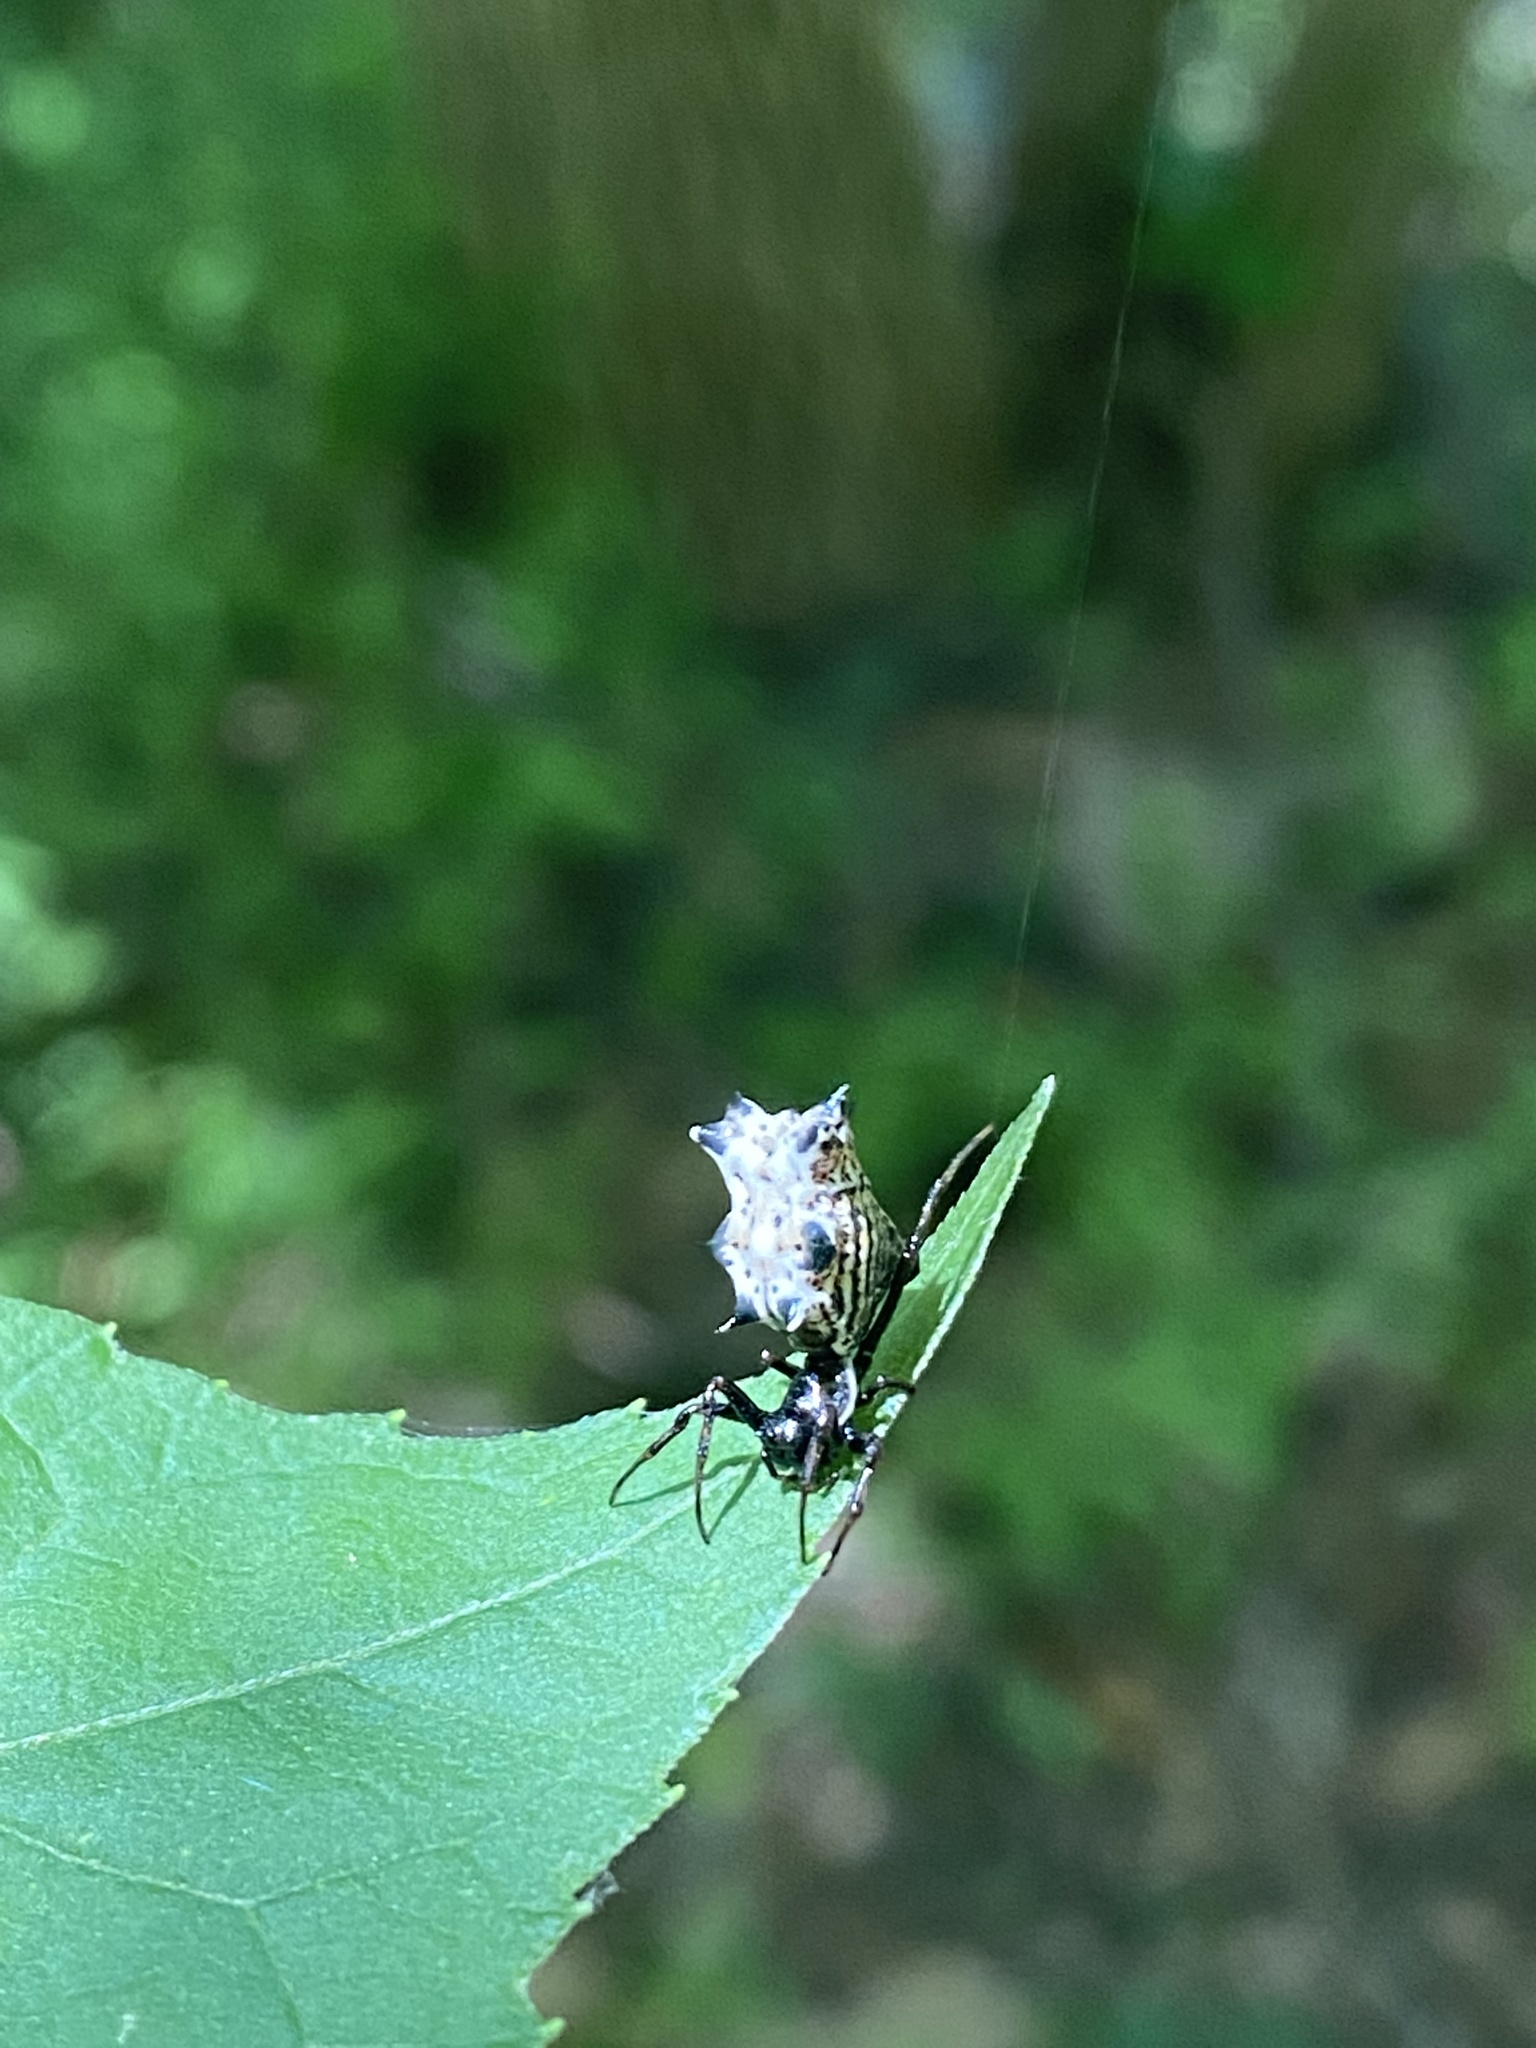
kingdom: Animalia
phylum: Arthropoda
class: Arachnida
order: Araneae
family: Araneidae
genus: Micrathena
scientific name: Micrathena gracilis
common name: Orb weavers
